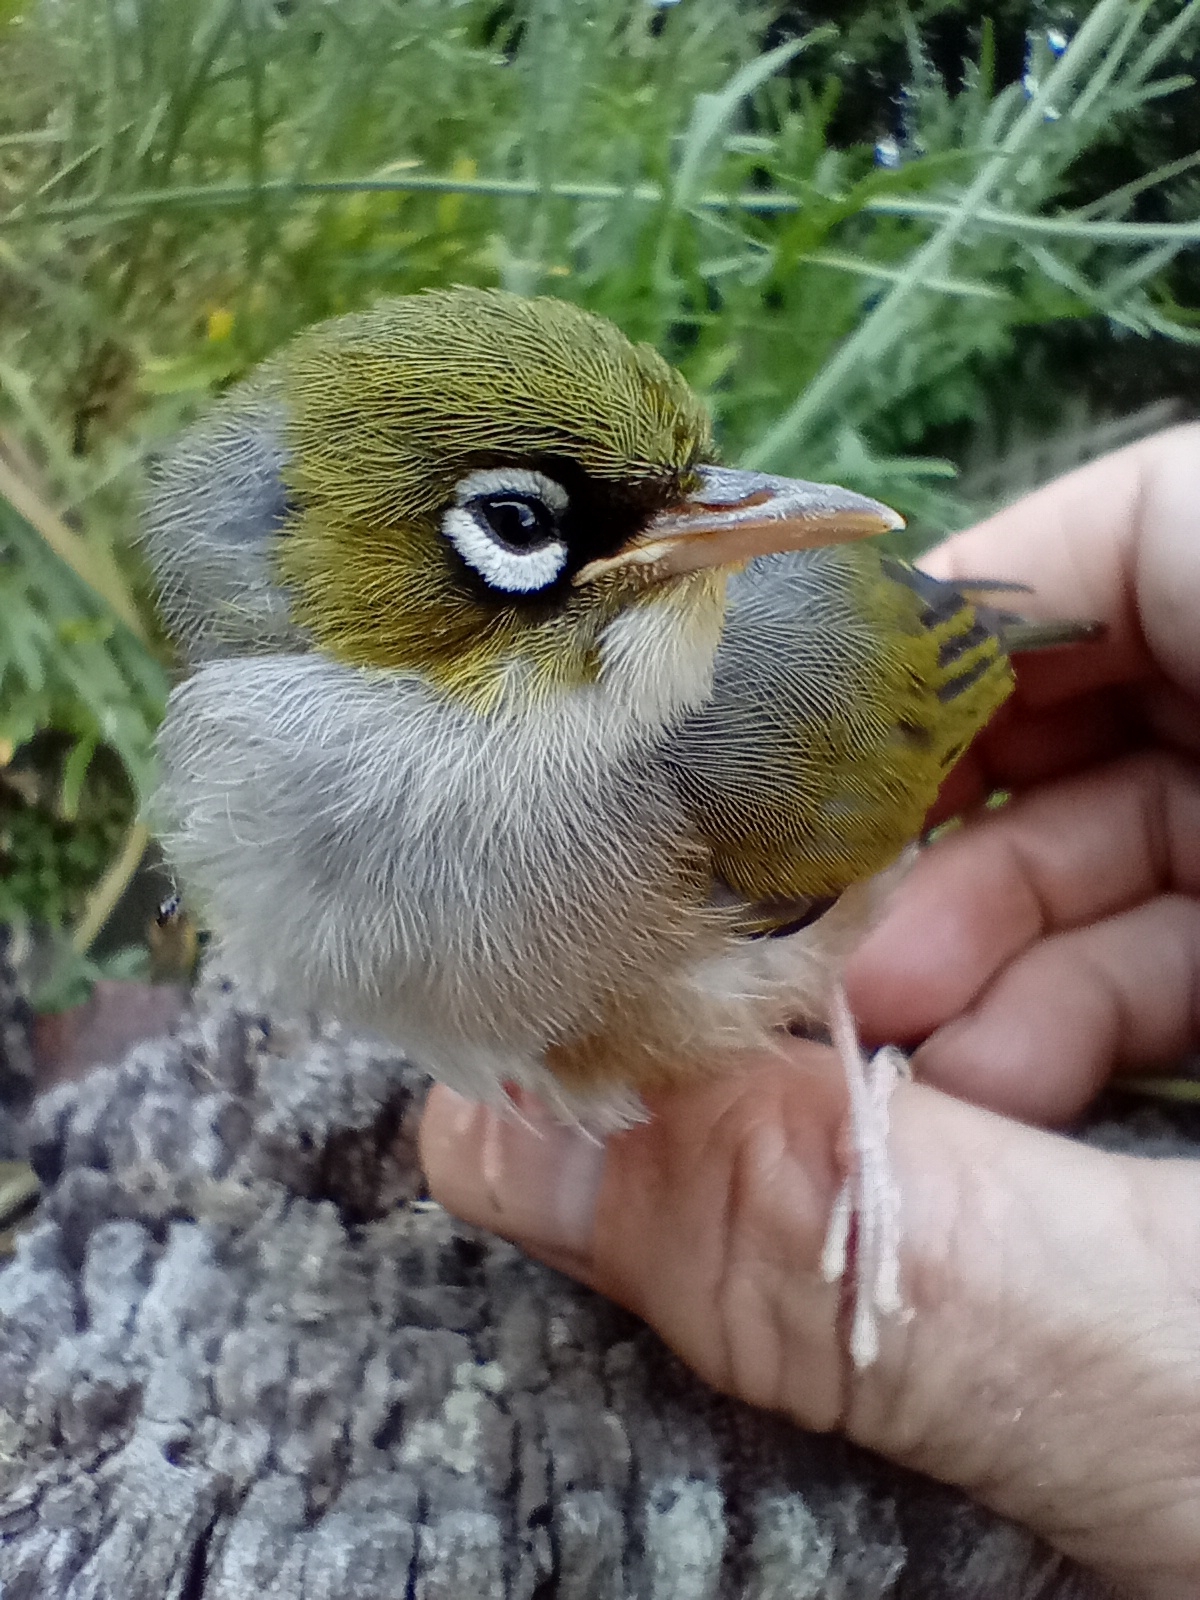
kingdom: Animalia
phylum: Chordata
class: Aves
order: Passeriformes
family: Zosteropidae
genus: Zosterops
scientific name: Zosterops lateralis
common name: Silvereye
